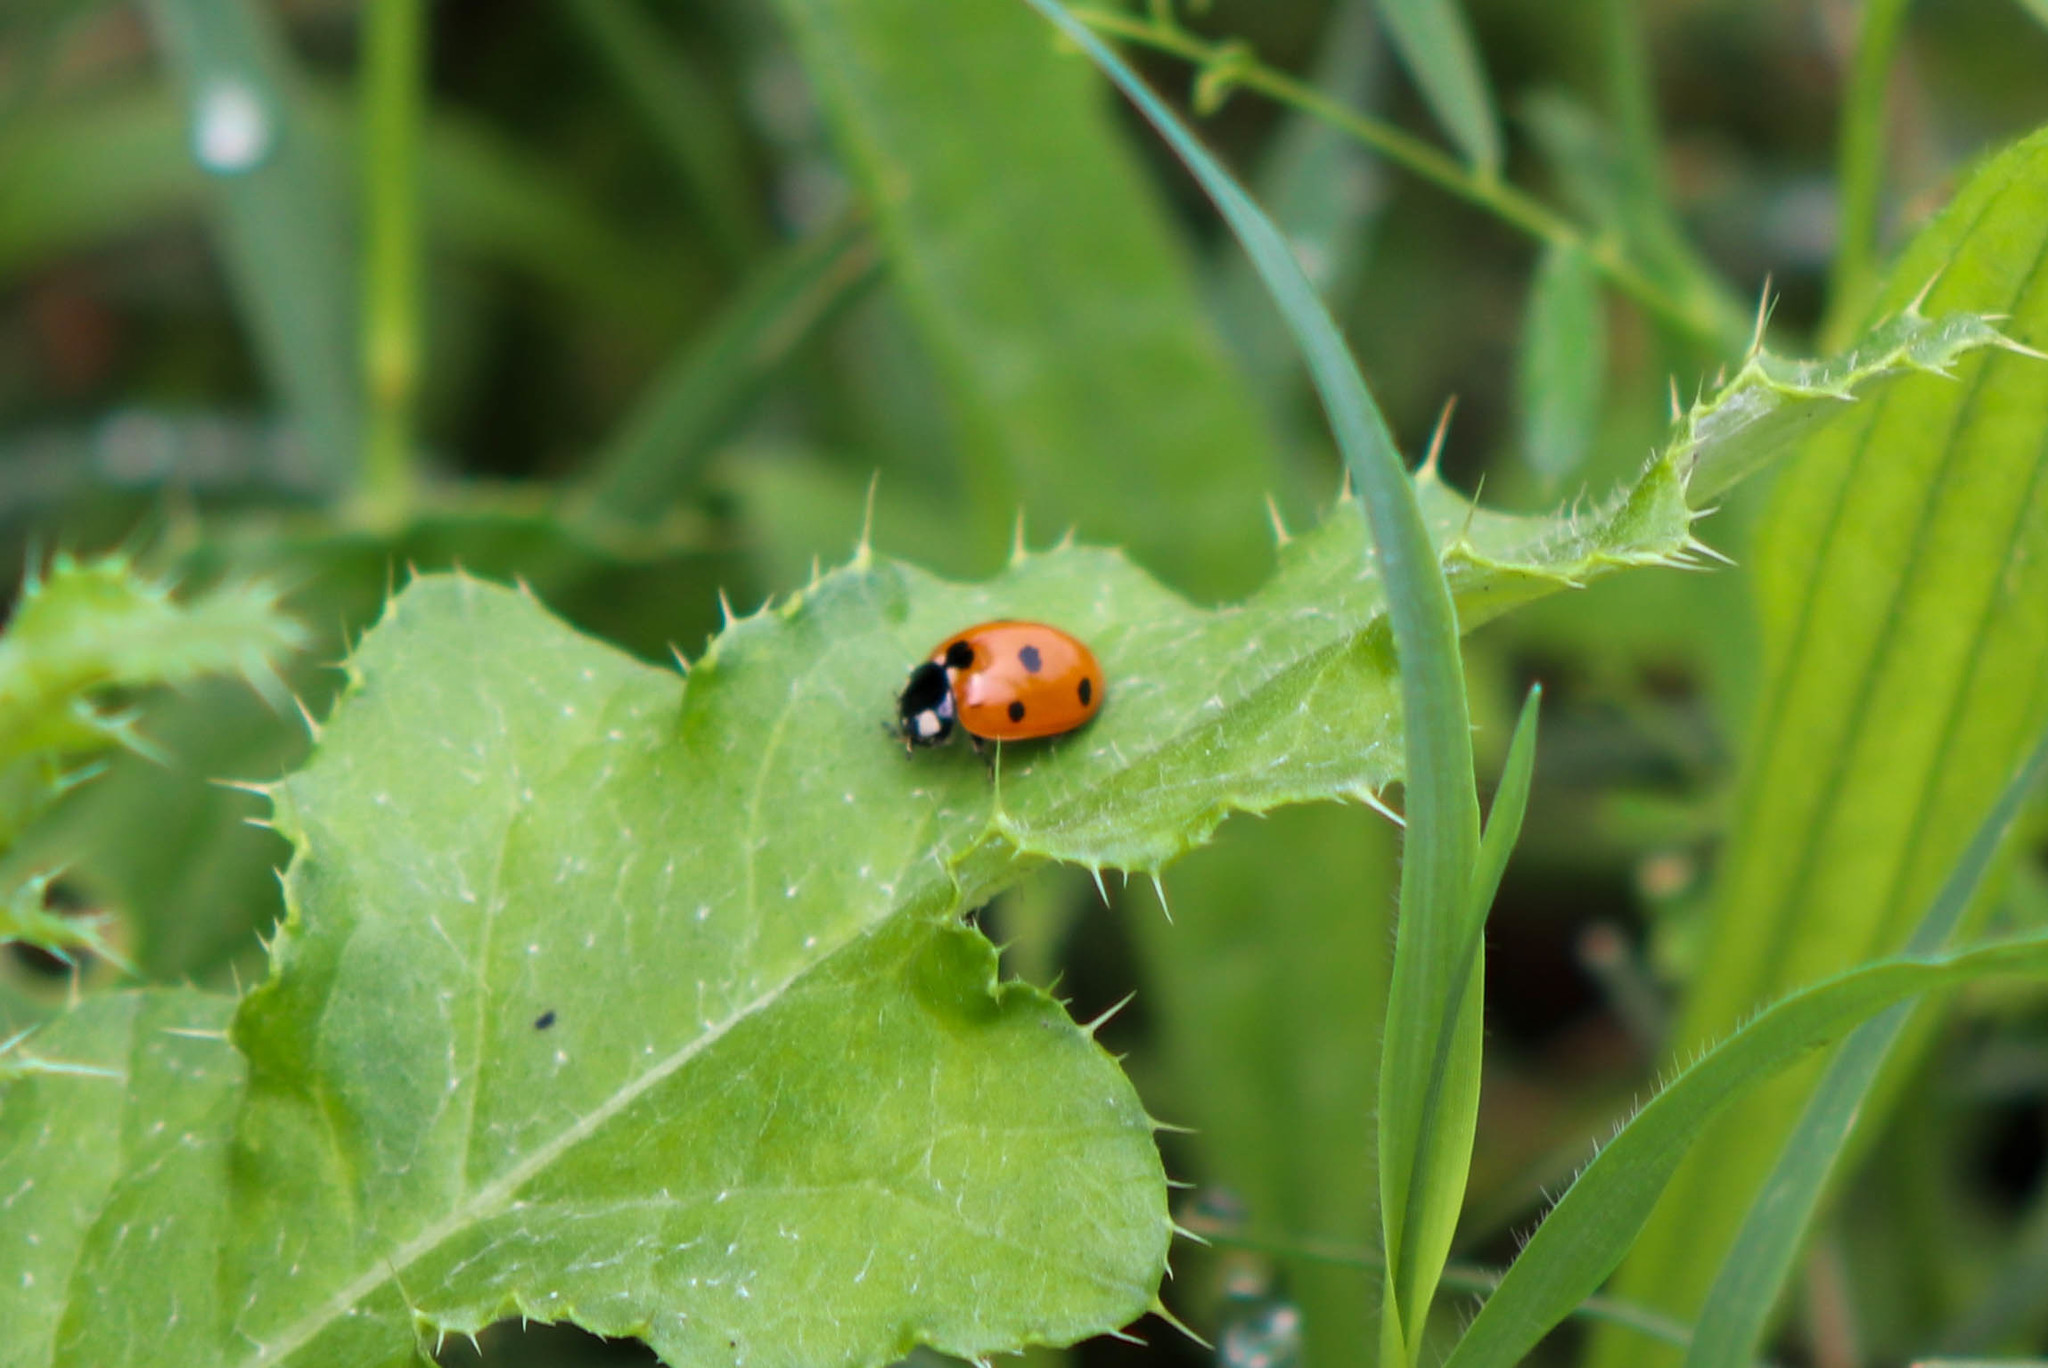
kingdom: Animalia
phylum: Arthropoda
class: Insecta
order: Coleoptera
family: Coccinellidae
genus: Coccinella
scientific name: Coccinella septempunctata
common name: Sevenspotted lady beetle
